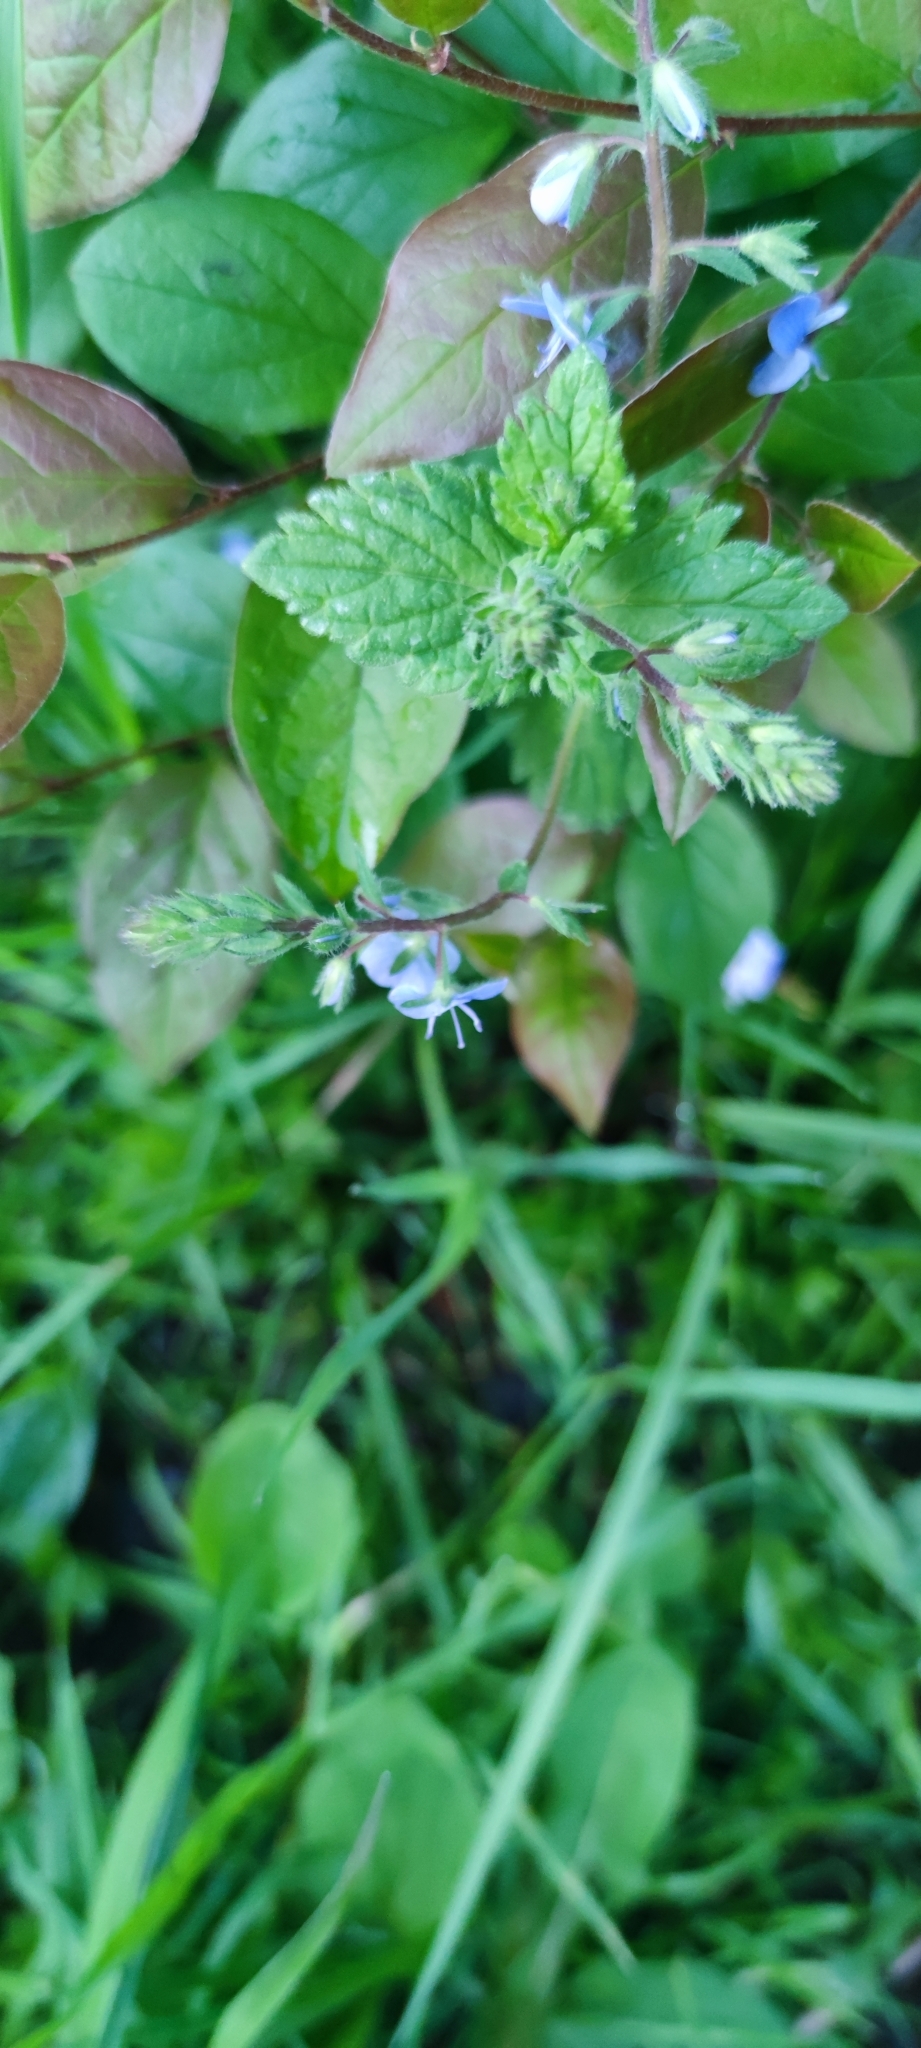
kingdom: Plantae
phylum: Tracheophyta
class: Magnoliopsida
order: Lamiales
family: Plantaginaceae
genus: Veronica
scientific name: Veronica chamaedrys
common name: Germander speedwell
